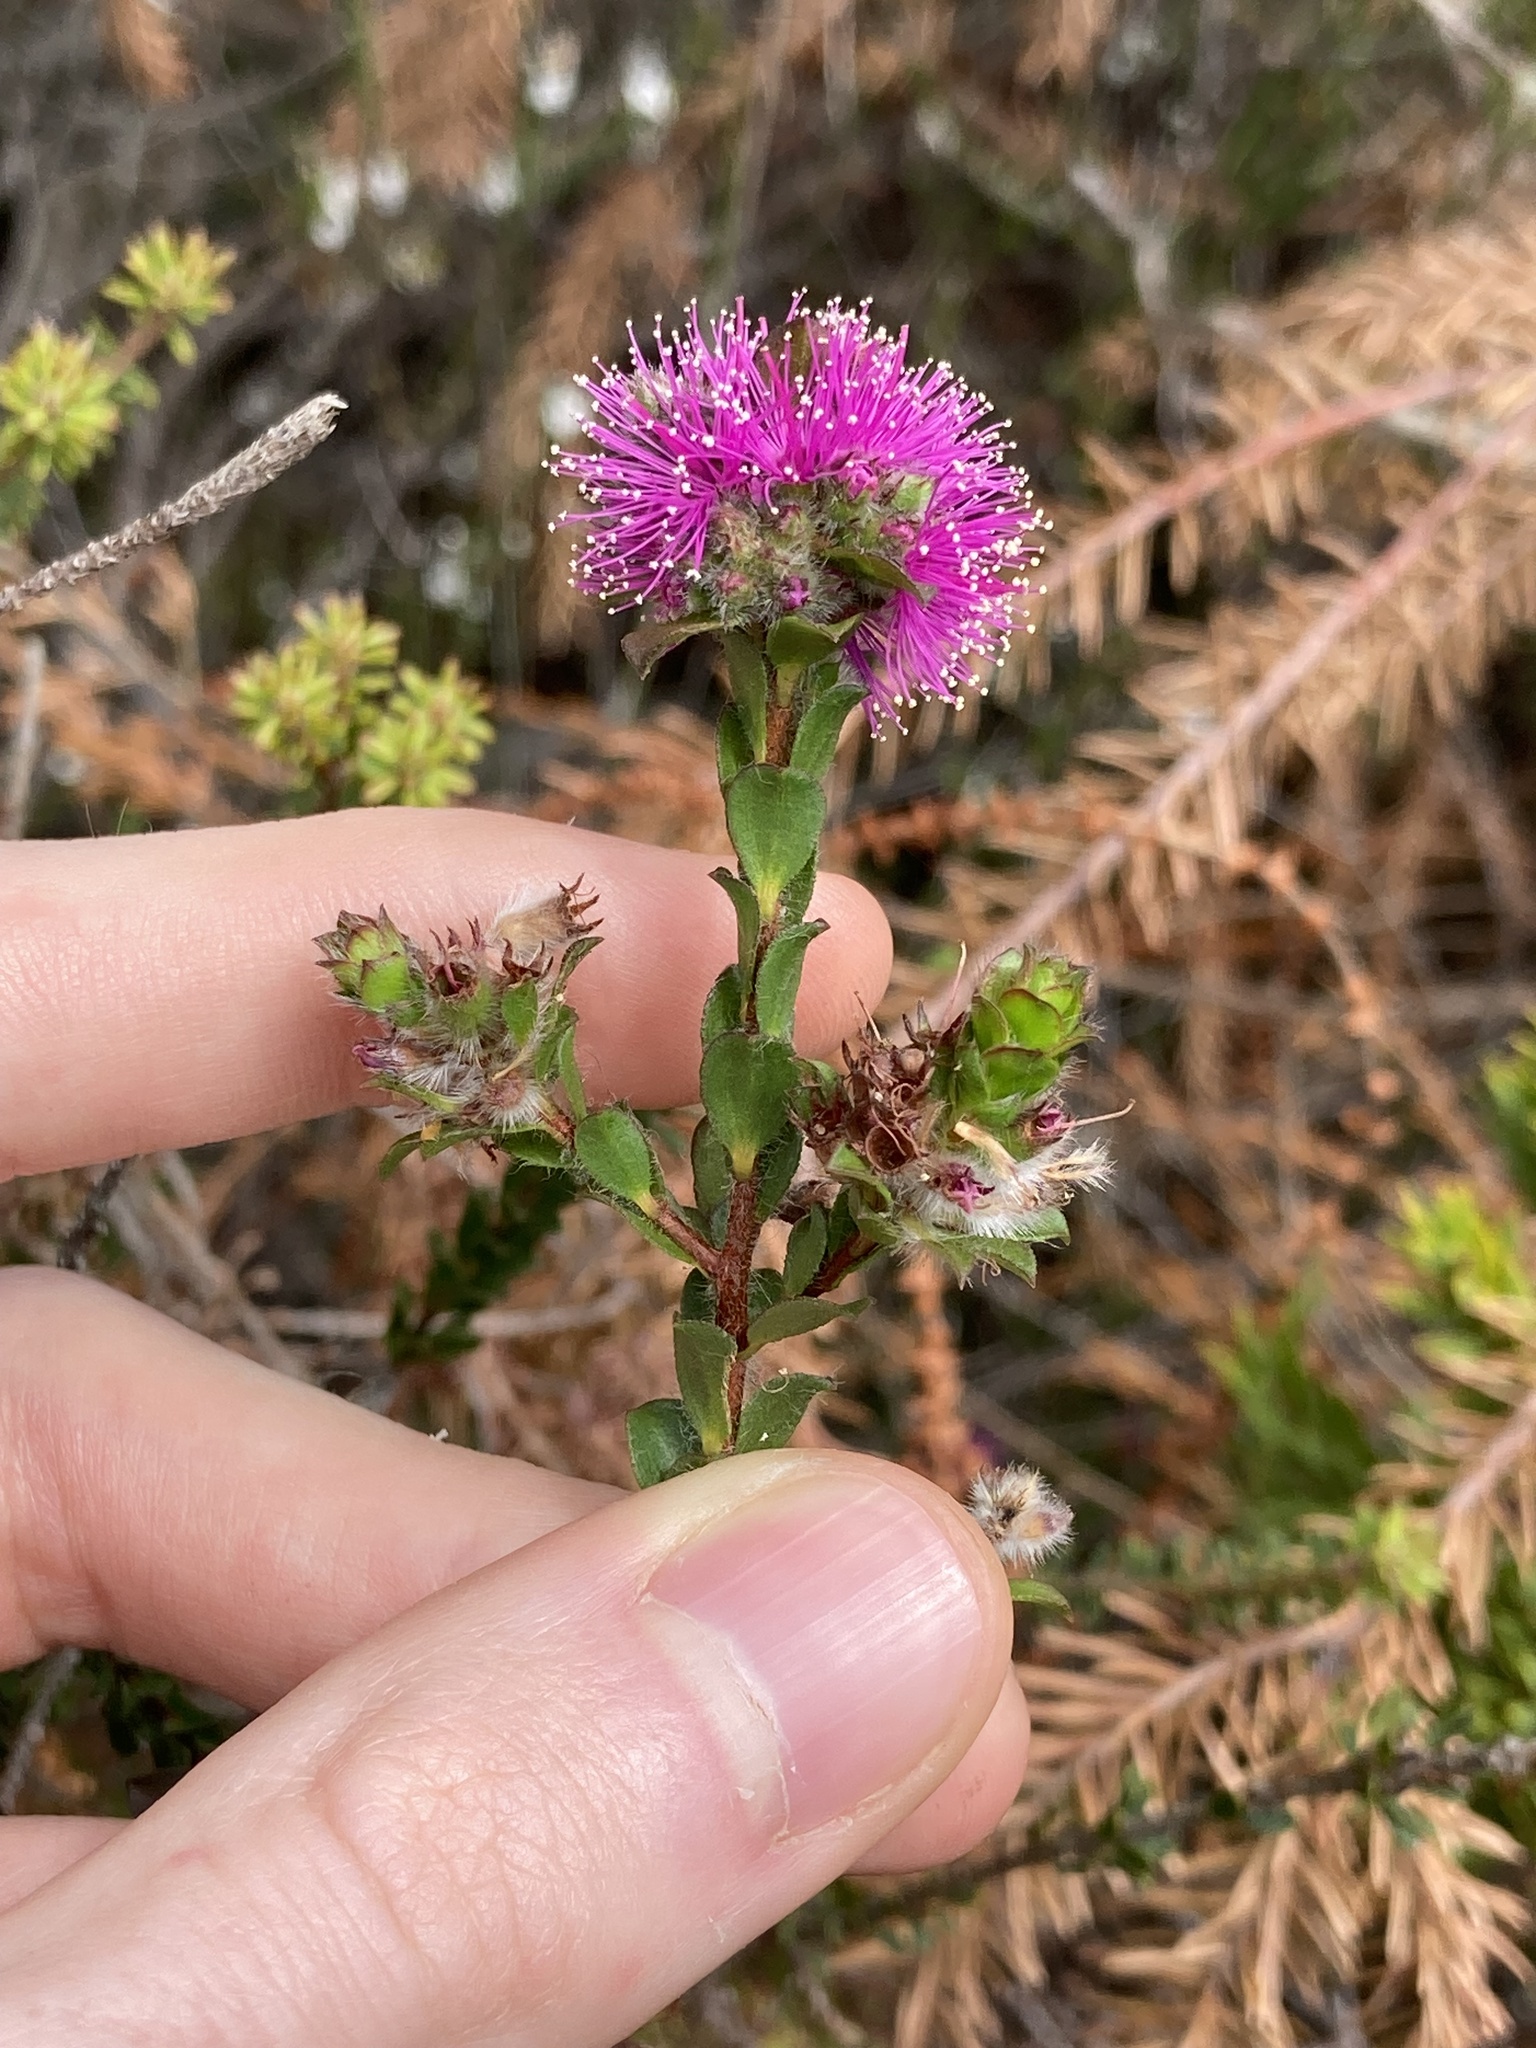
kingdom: Plantae
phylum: Tracheophyta
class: Magnoliopsida
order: Myrtales
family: Myrtaceae
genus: Kunzea
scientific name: Kunzea capitata
